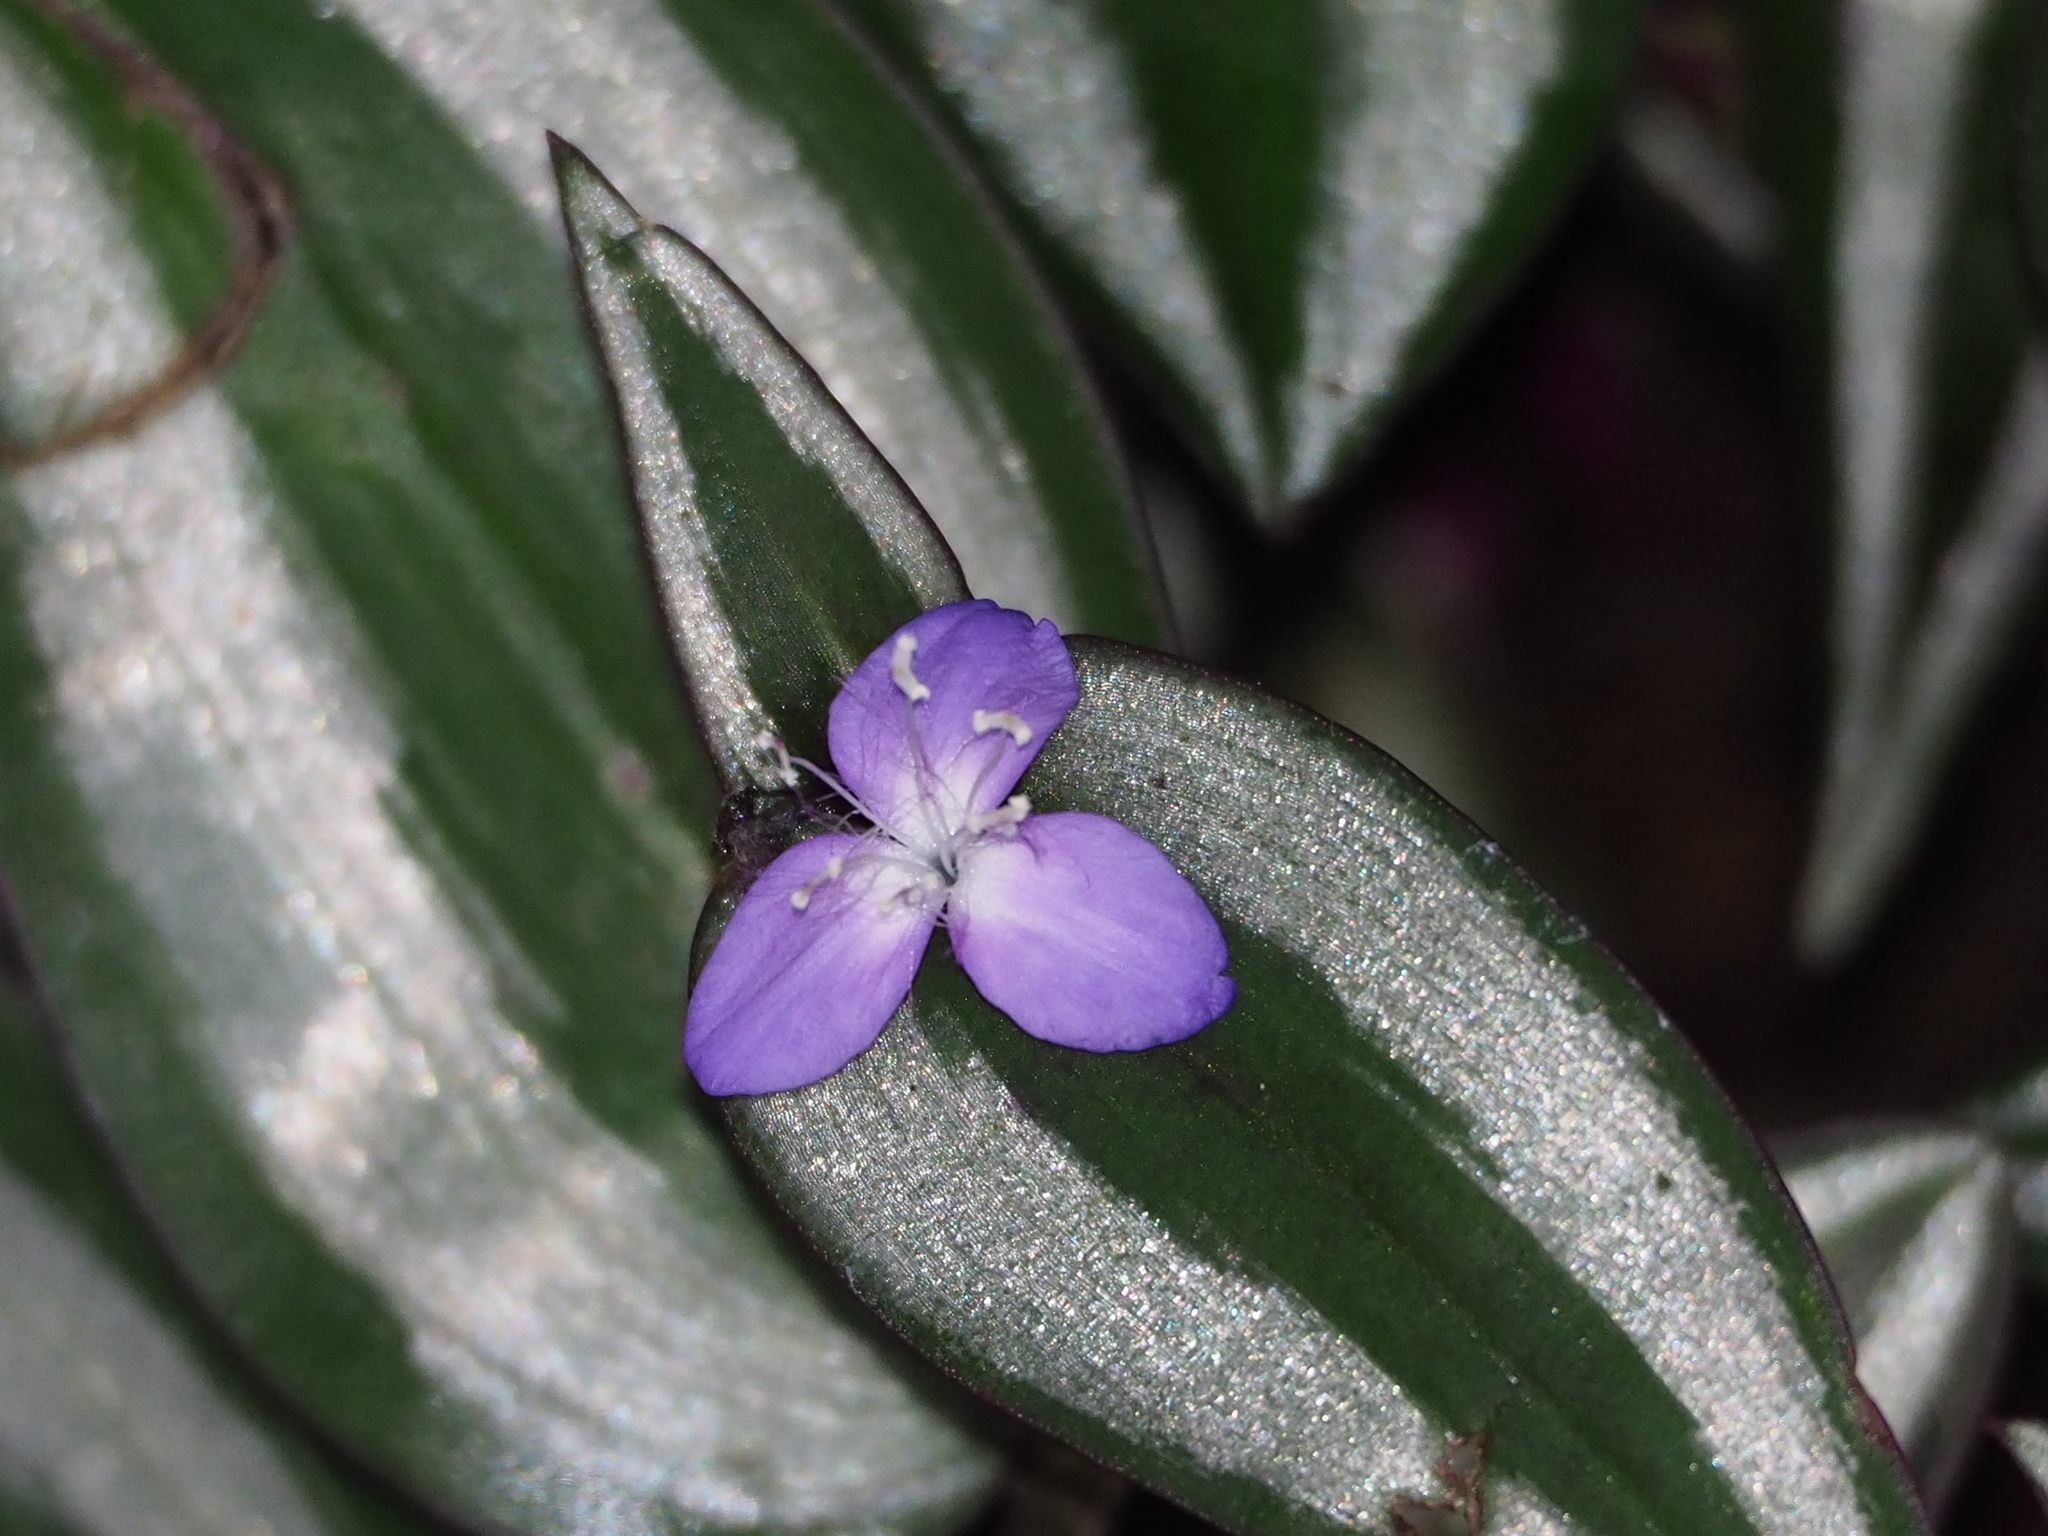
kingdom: Plantae
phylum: Tracheophyta
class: Liliopsida
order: Commelinales
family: Commelinaceae
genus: Tradescantia
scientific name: Tradescantia zebrina
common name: Inchplant
